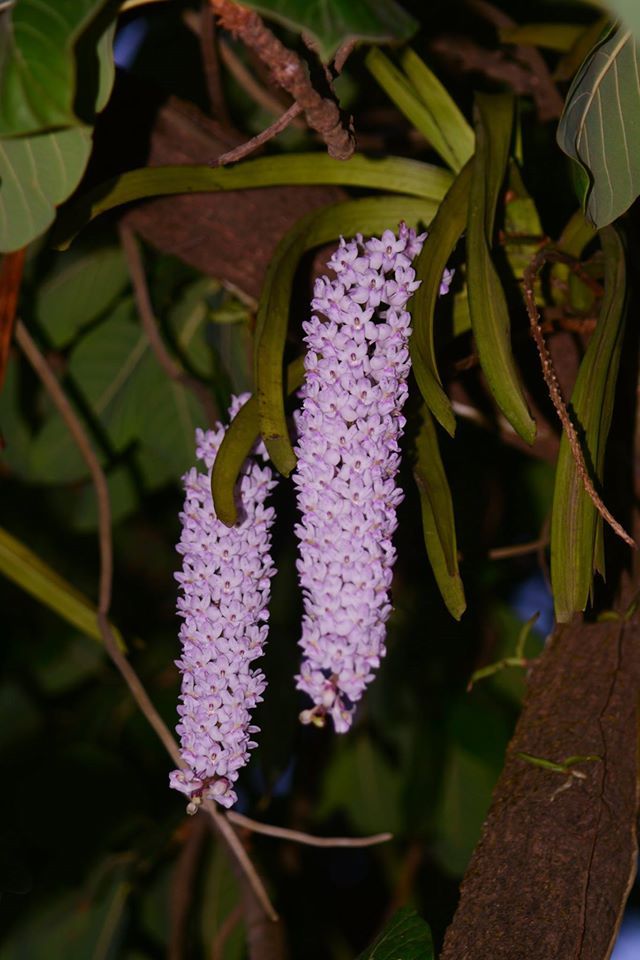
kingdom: Plantae
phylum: Tracheophyta
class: Liliopsida
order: Asparagales
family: Orchidaceae
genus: Rhynchostylis
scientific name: Rhynchostylis retusa
